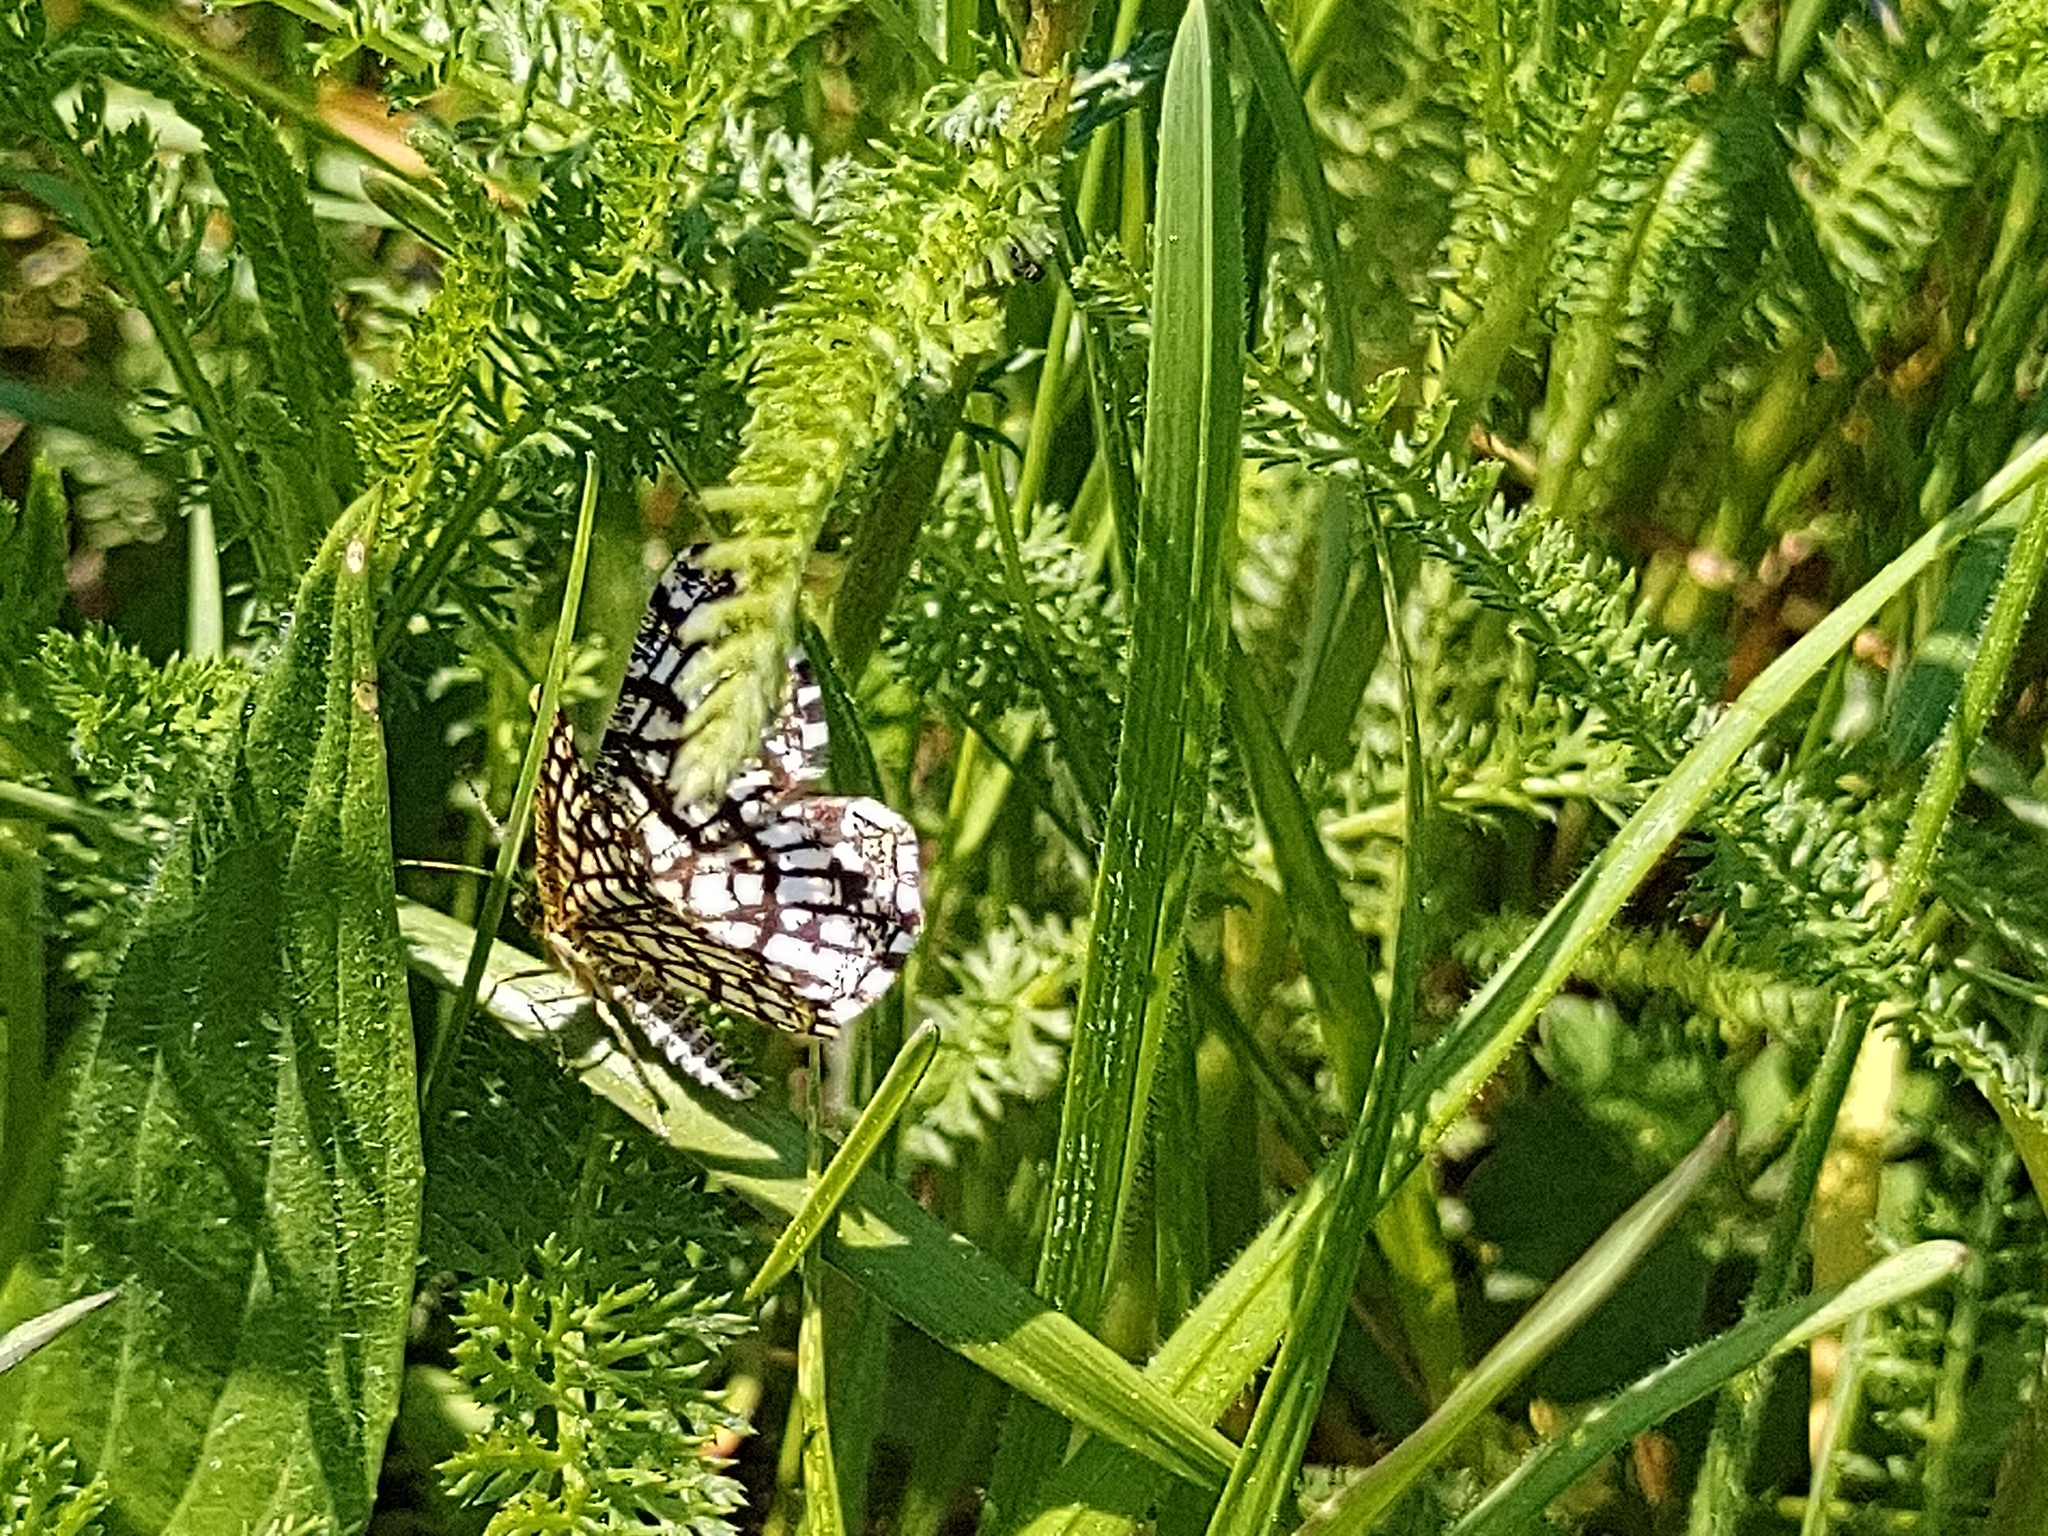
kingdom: Animalia
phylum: Arthropoda
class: Insecta
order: Lepidoptera
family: Geometridae
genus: Chiasmia
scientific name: Chiasmia clathrata
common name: Latticed heath
